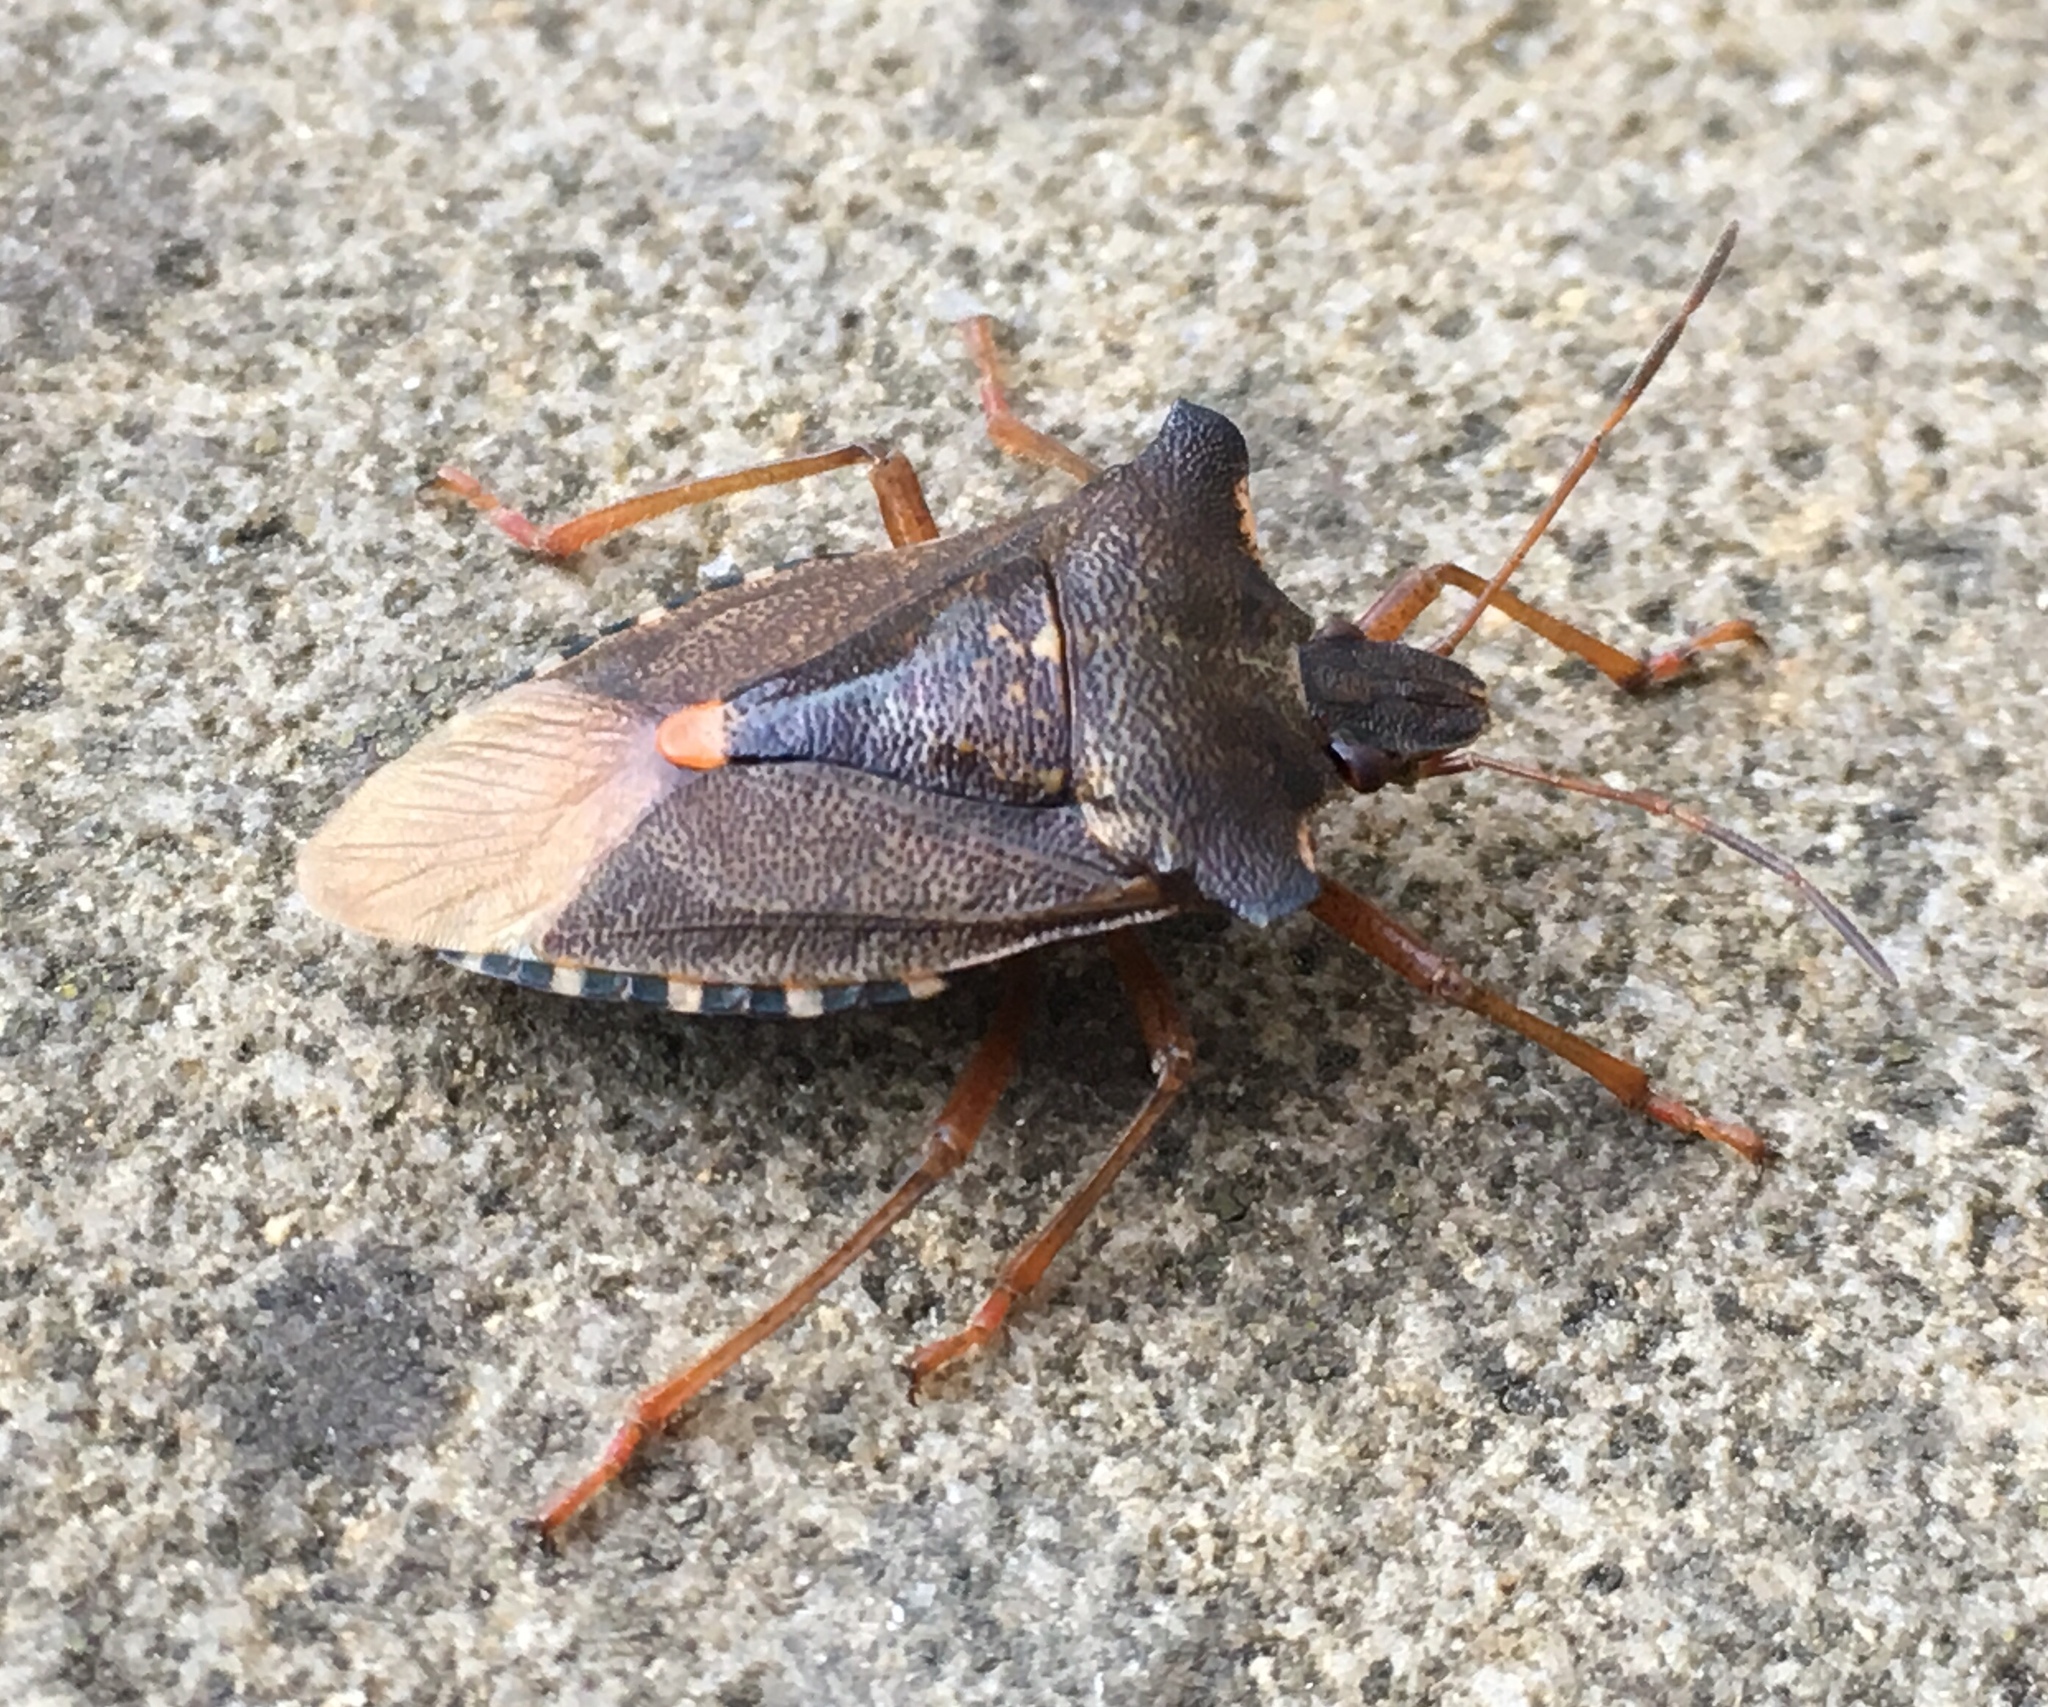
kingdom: Animalia
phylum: Arthropoda
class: Insecta
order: Hemiptera
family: Pentatomidae
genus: Pentatoma
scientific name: Pentatoma rufipes
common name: Forest bug
